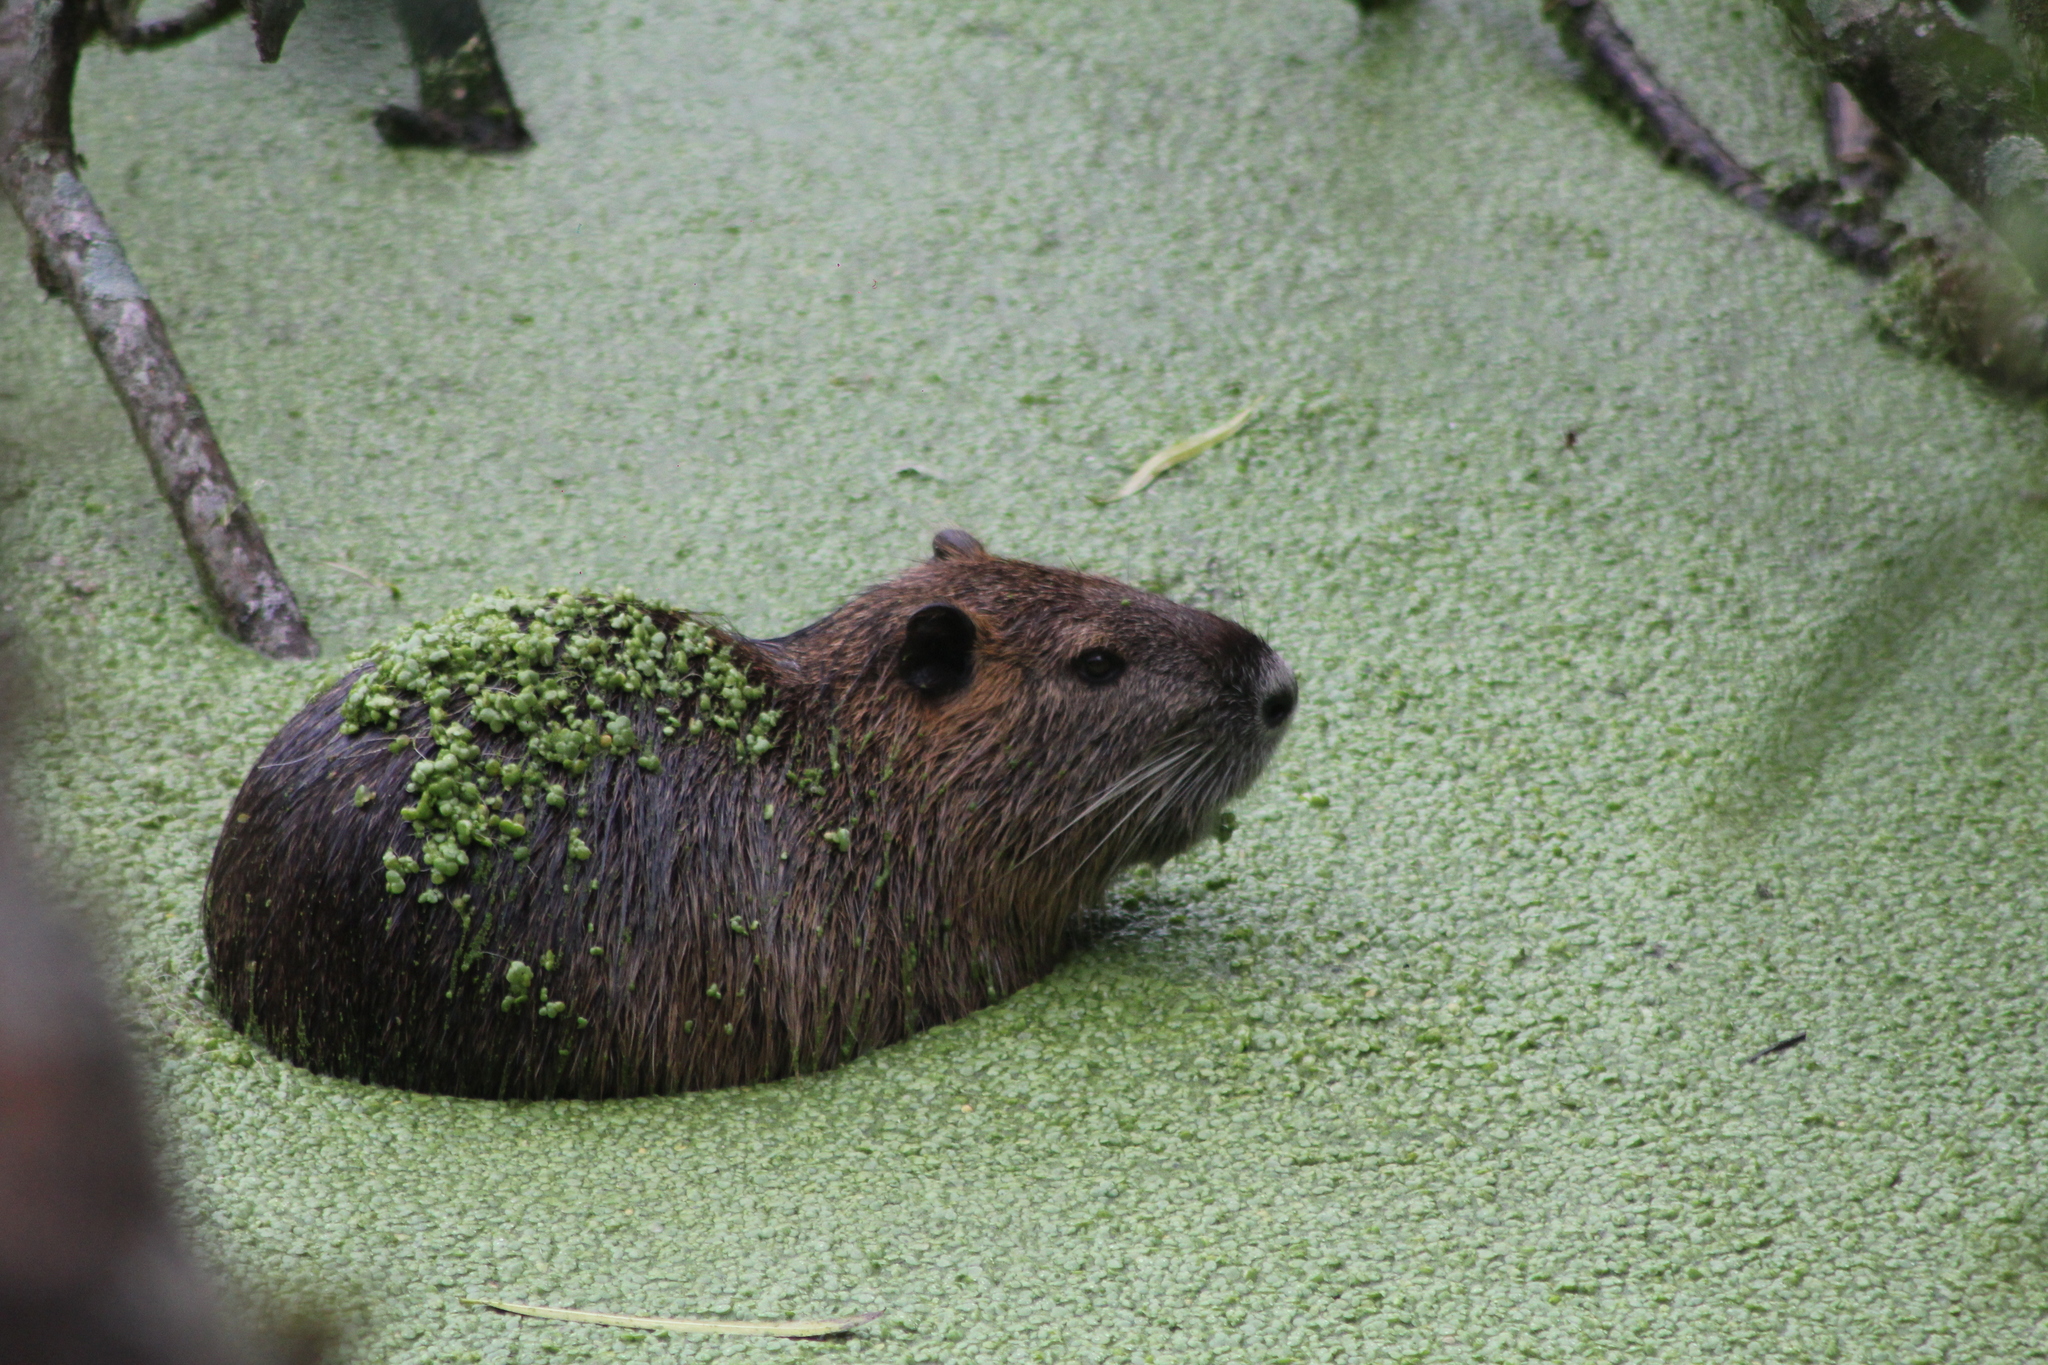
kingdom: Animalia
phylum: Chordata
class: Mammalia
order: Rodentia
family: Myocastoridae
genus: Myocastor
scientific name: Myocastor coypus
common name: Coypu
